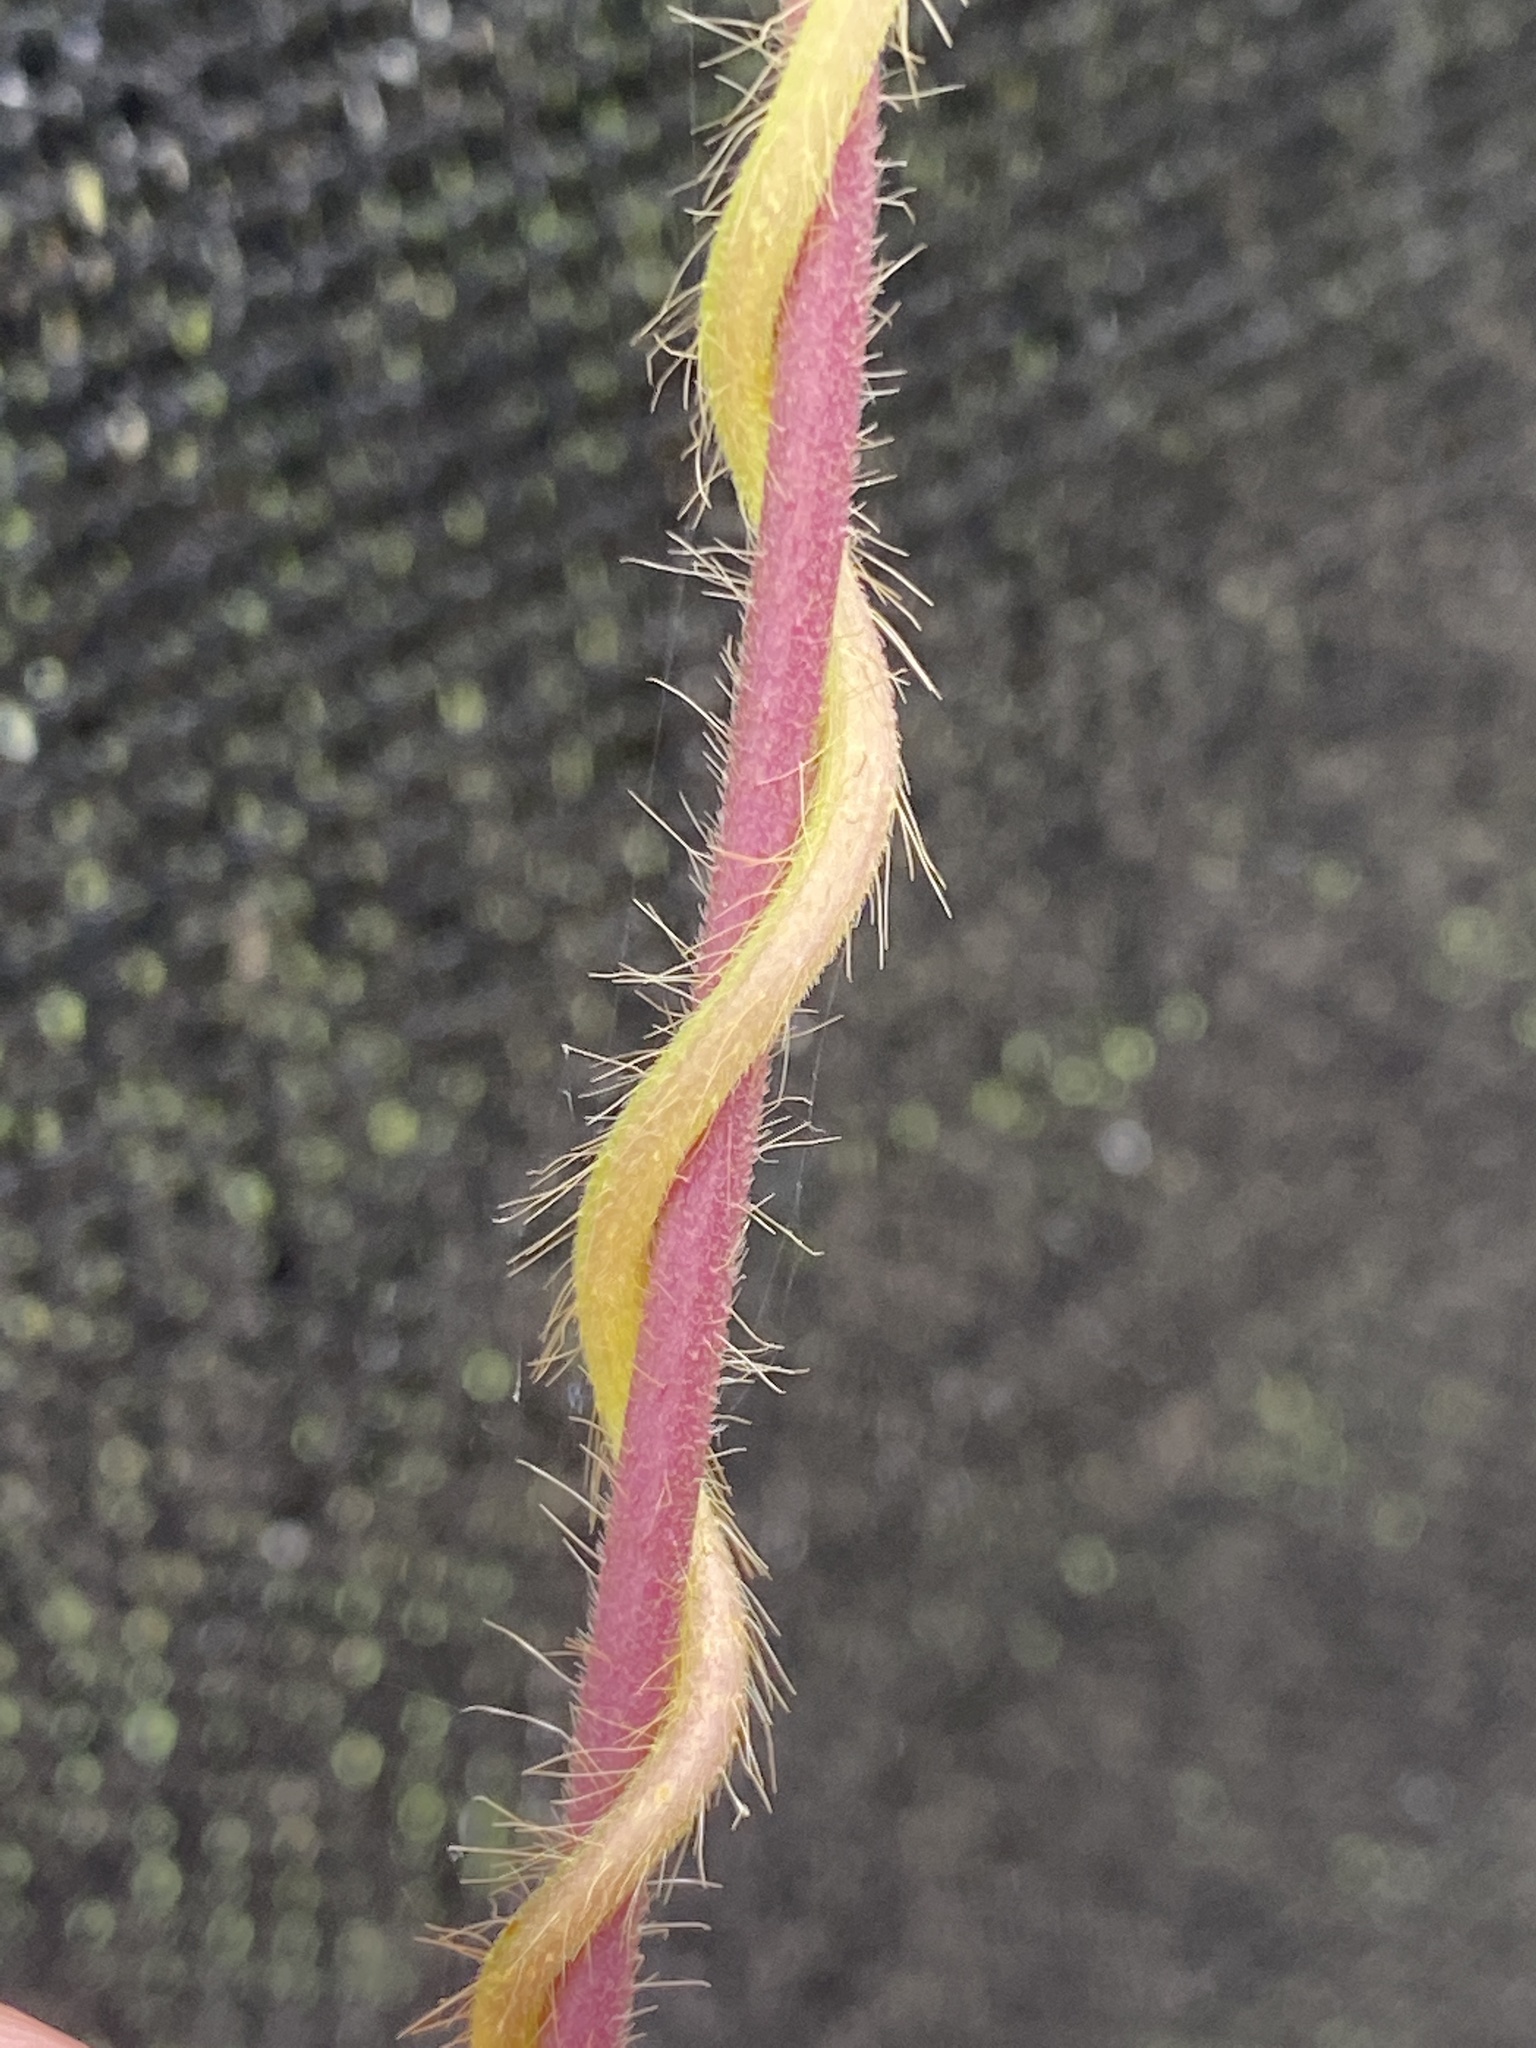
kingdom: Plantae
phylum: Tracheophyta
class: Magnoliopsida
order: Solanales
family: Convolvulaceae
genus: Ipomoea
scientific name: Ipomoea hederacea
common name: Ivy-leaved morning-glory
